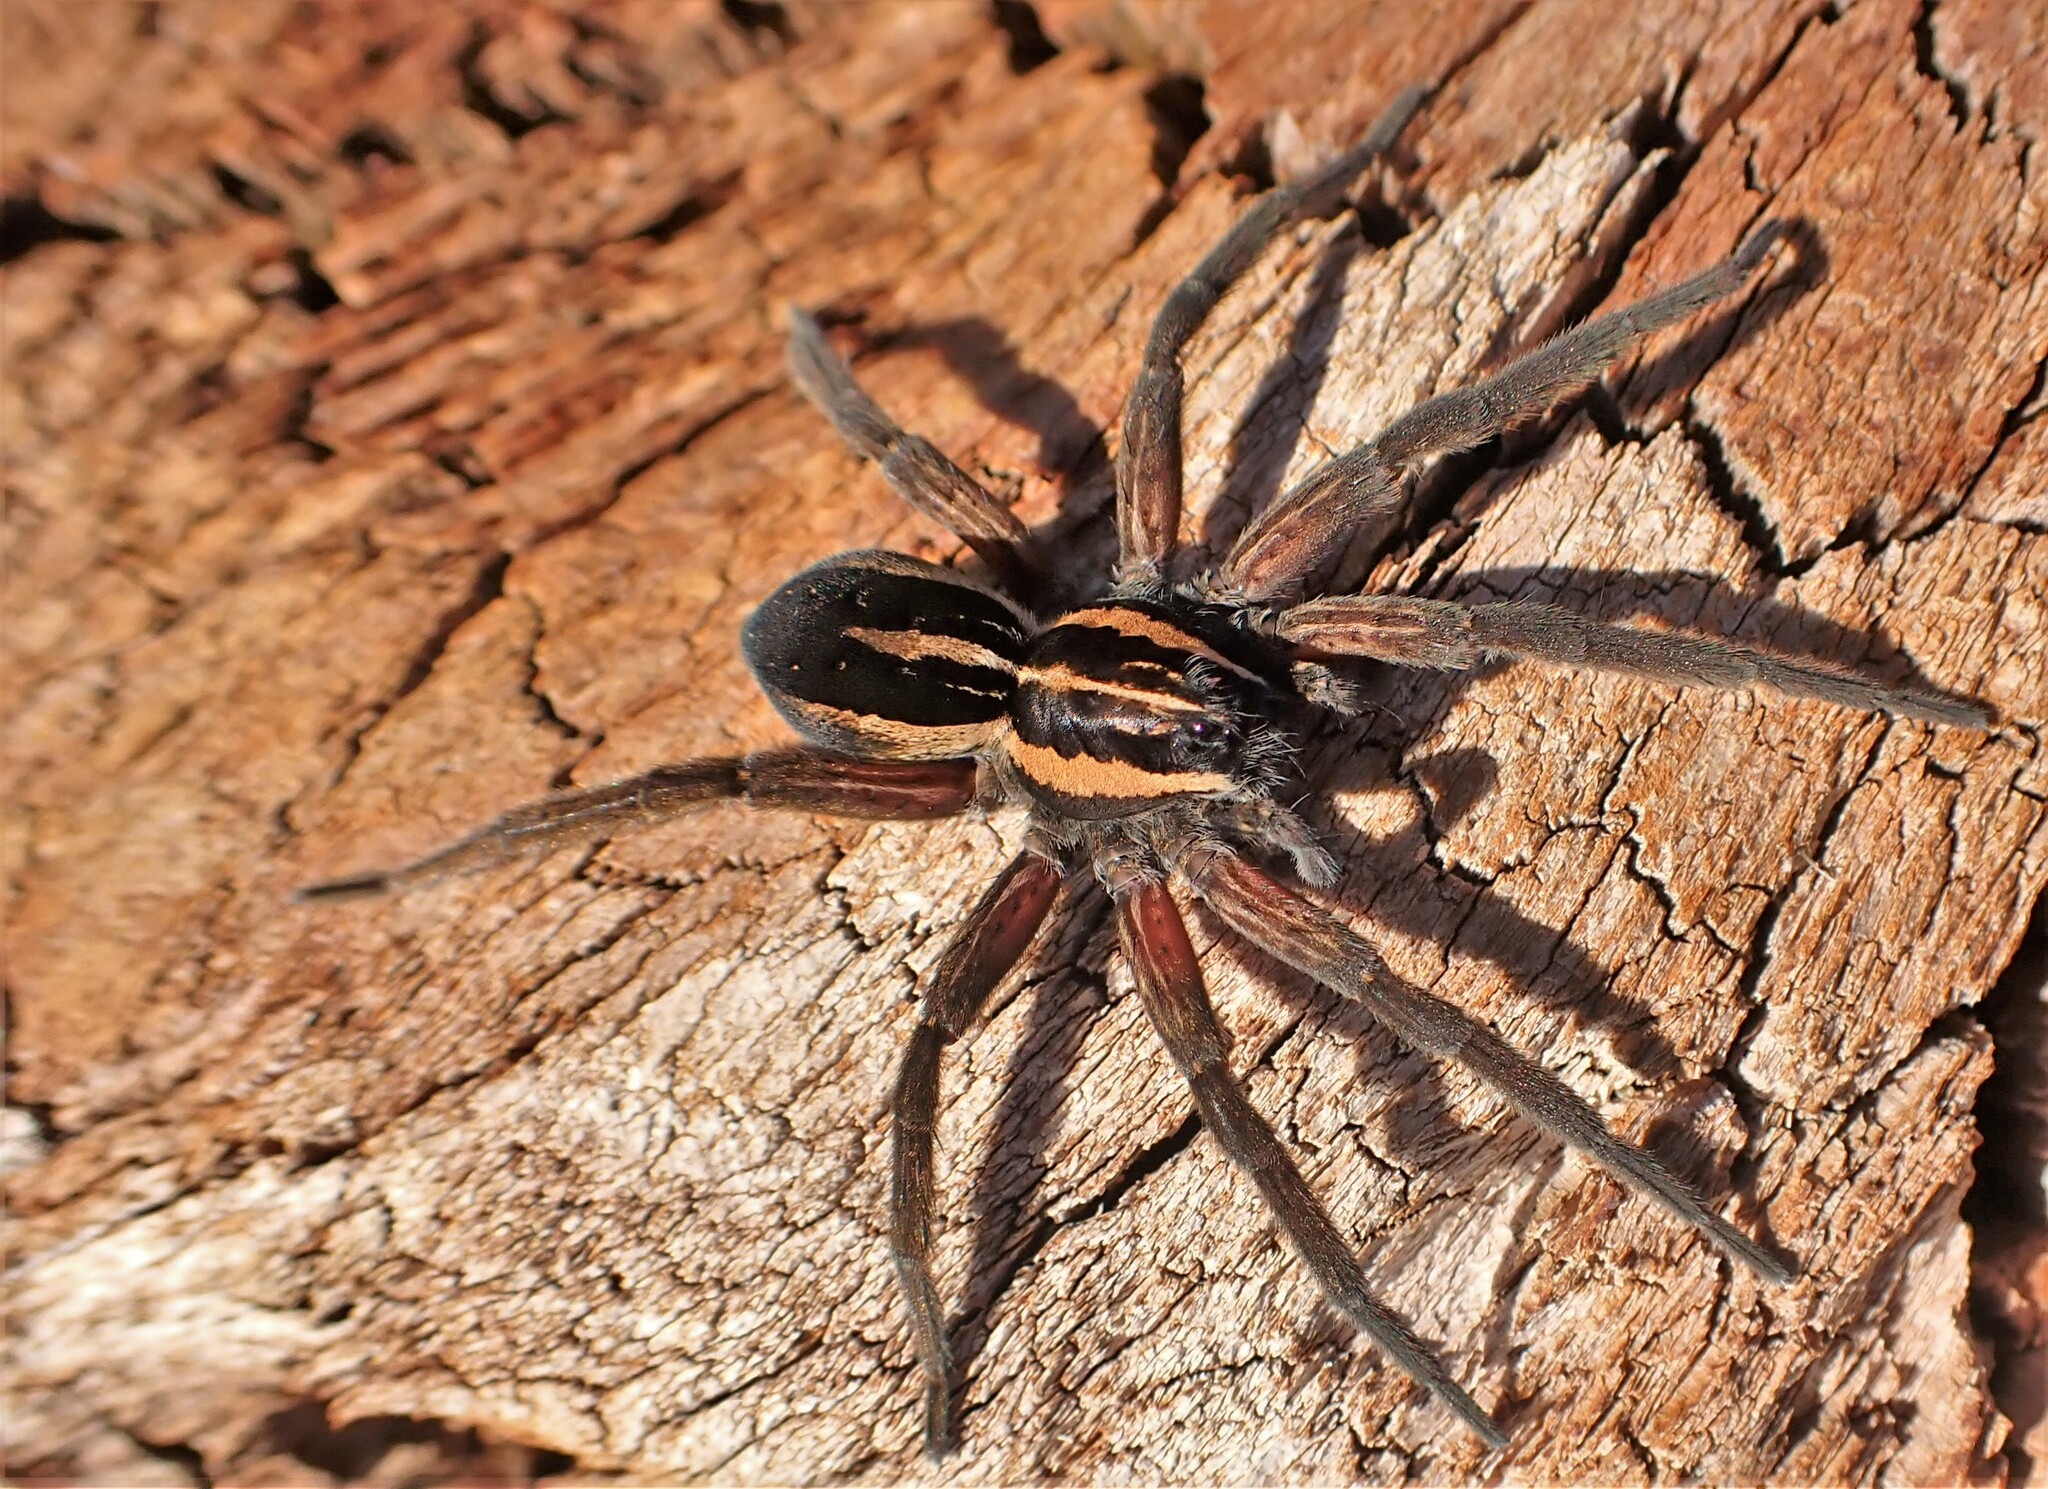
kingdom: Animalia
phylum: Arthropoda
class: Arachnida
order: Araneae
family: Pisauridae
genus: Dolomedes
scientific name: Dolomedes minor
